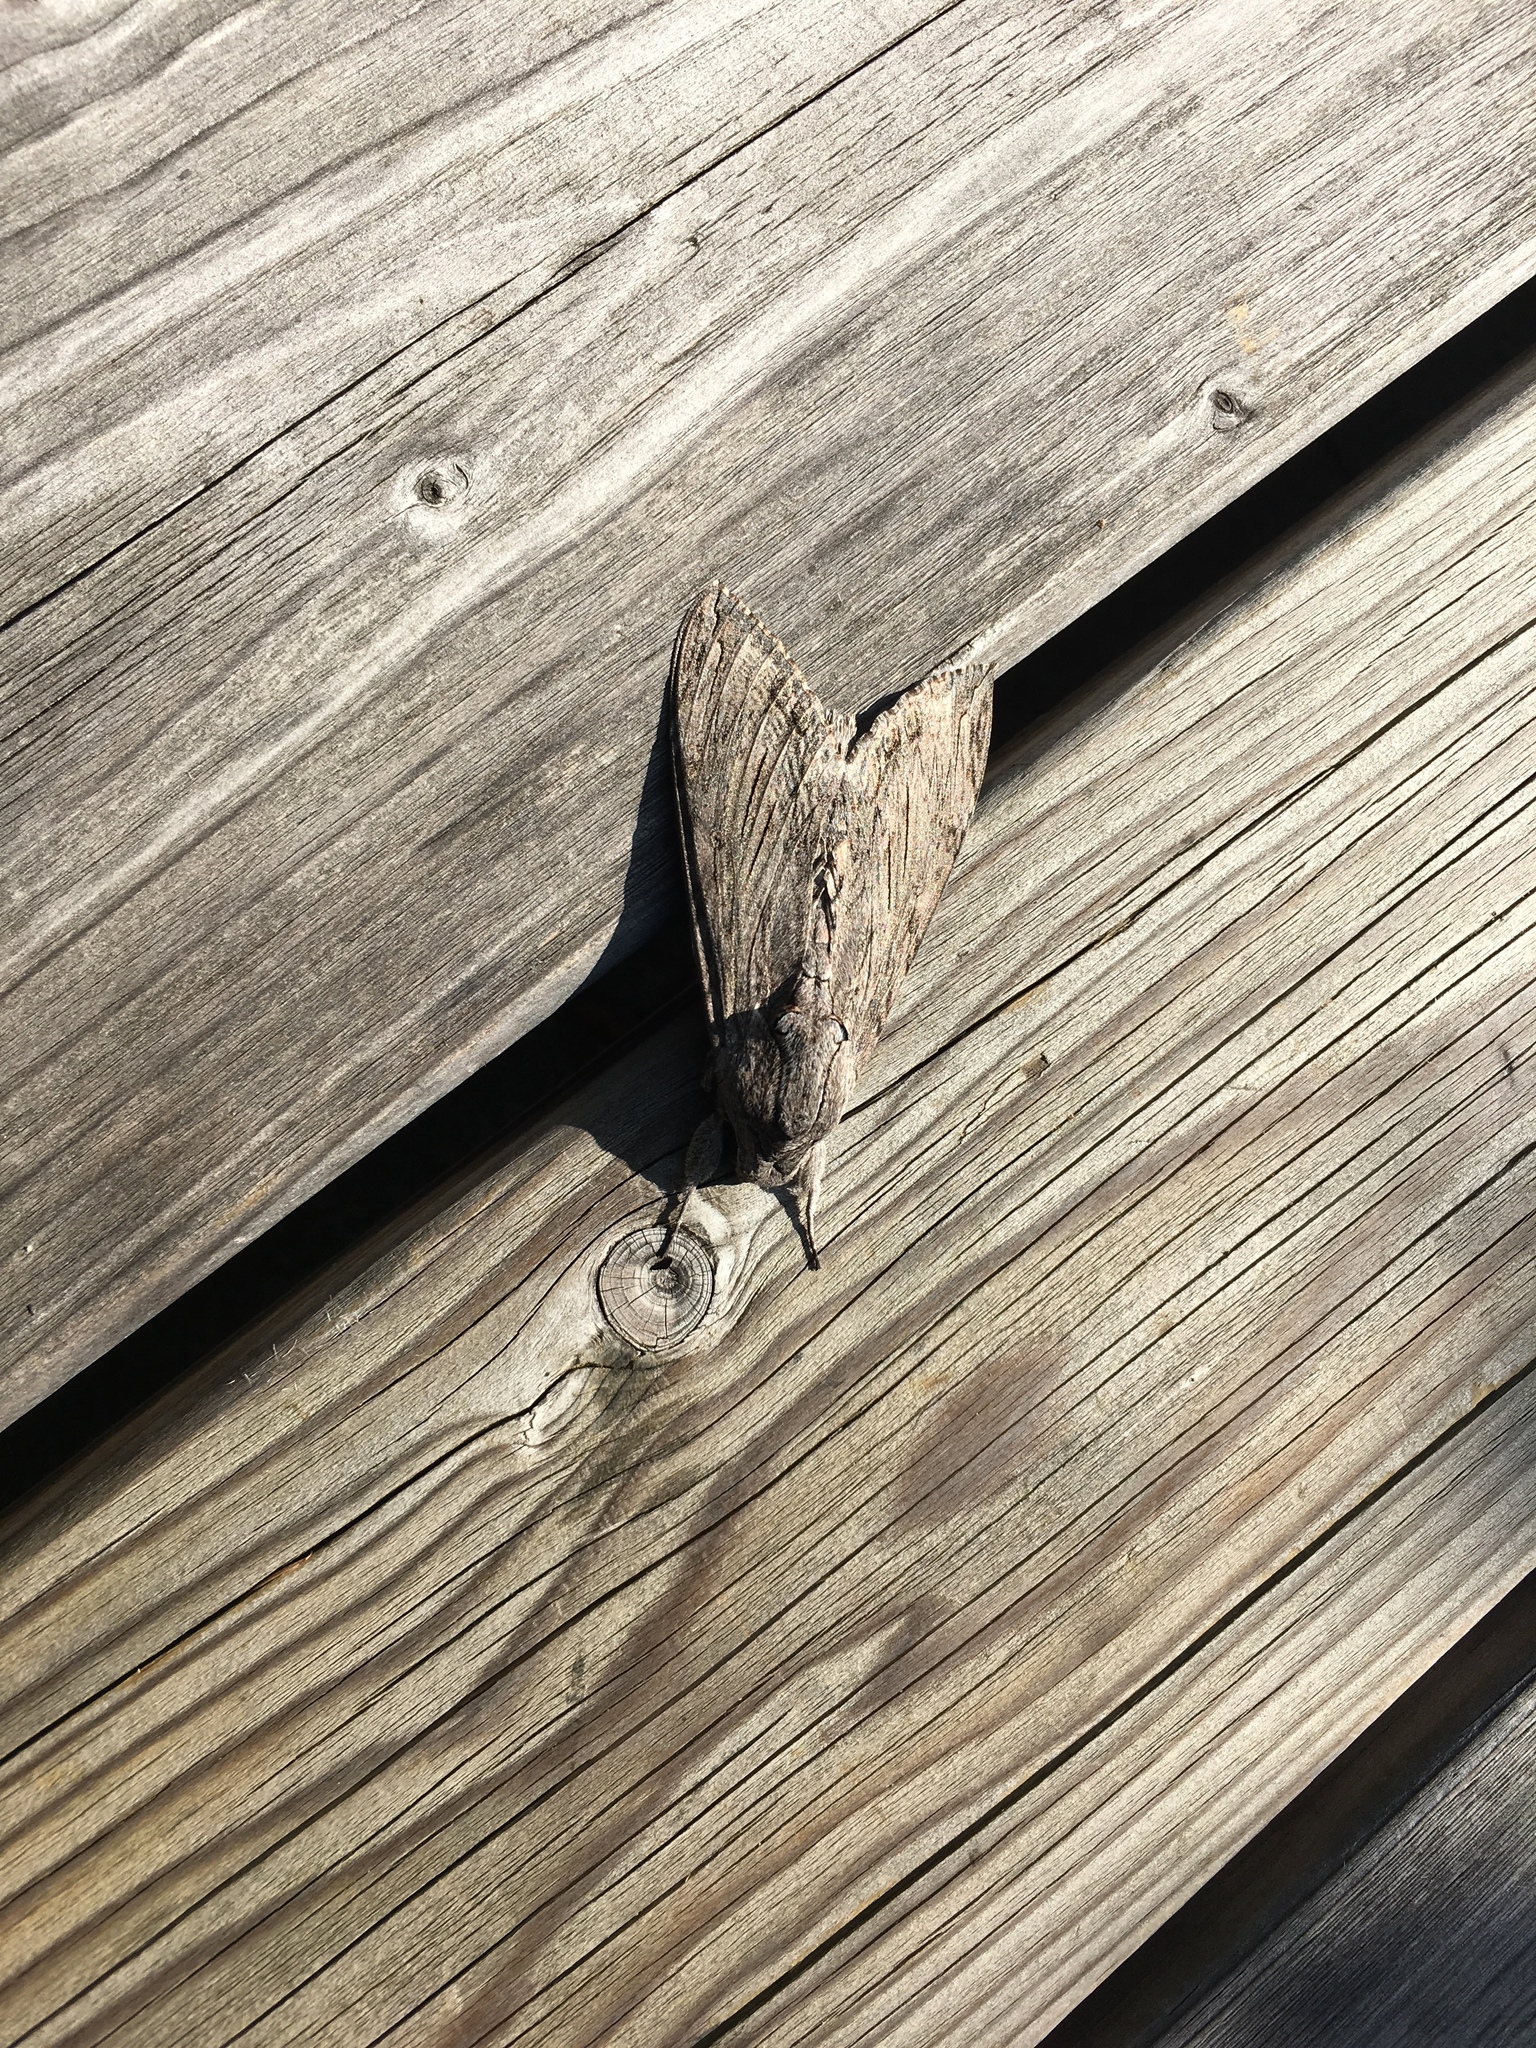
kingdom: Animalia
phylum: Arthropoda
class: Insecta
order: Lepidoptera
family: Sphingidae
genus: Agrius
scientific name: Agrius convolvuli
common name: Convolvulus hawkmoth
